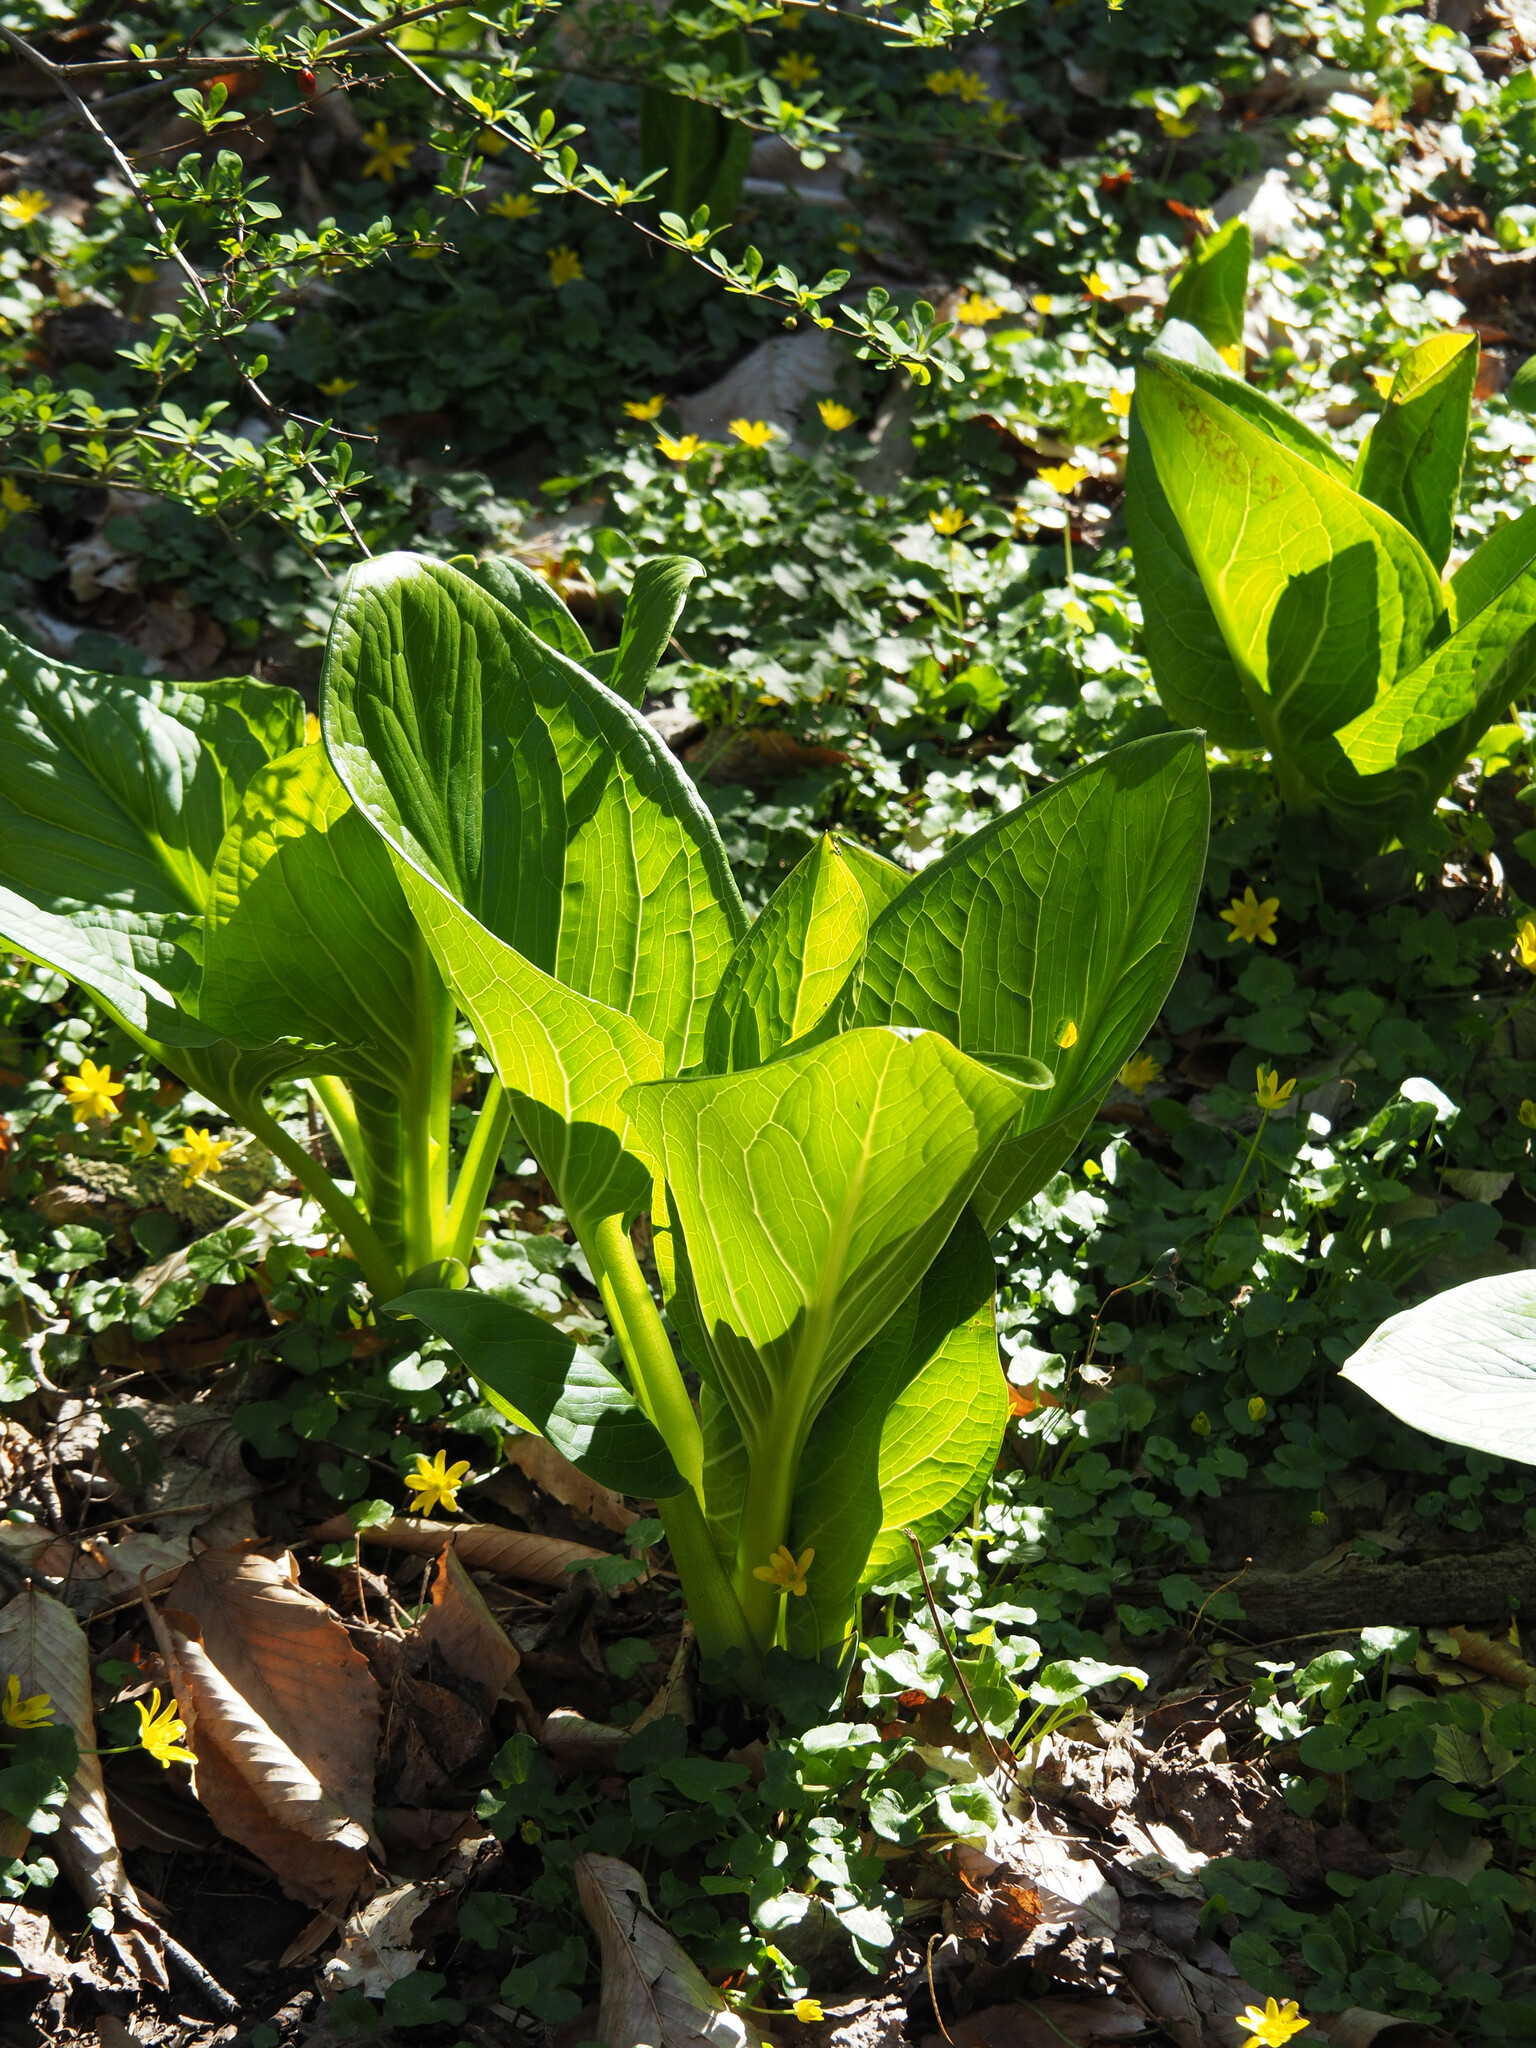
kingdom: Plantae
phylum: Tracheophyta
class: Liliopsida
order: Alismatales
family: Araceae
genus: Symplocarpus
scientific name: Symplocarpus foetidus
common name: Eastern skunk cabbage
